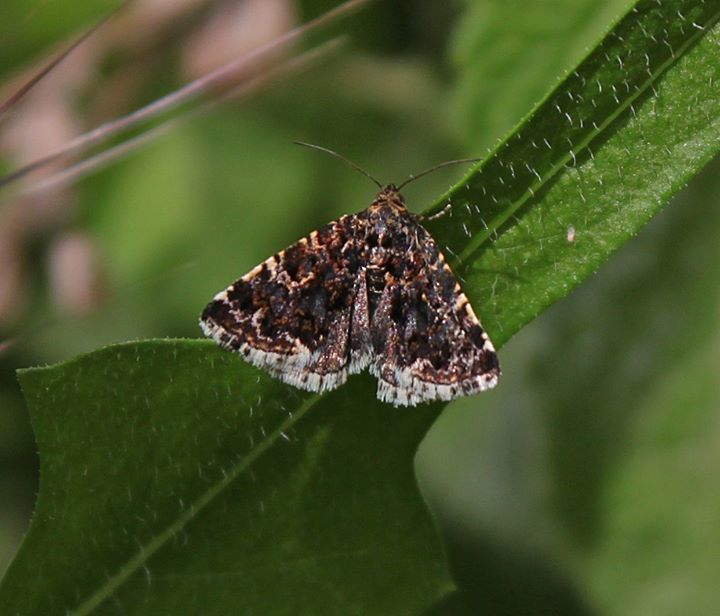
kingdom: Animalia
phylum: Arthropoda
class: Insecta
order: Lepidoptera
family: Noctuidae
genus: Acontiola
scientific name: Acontiola moldavicola
